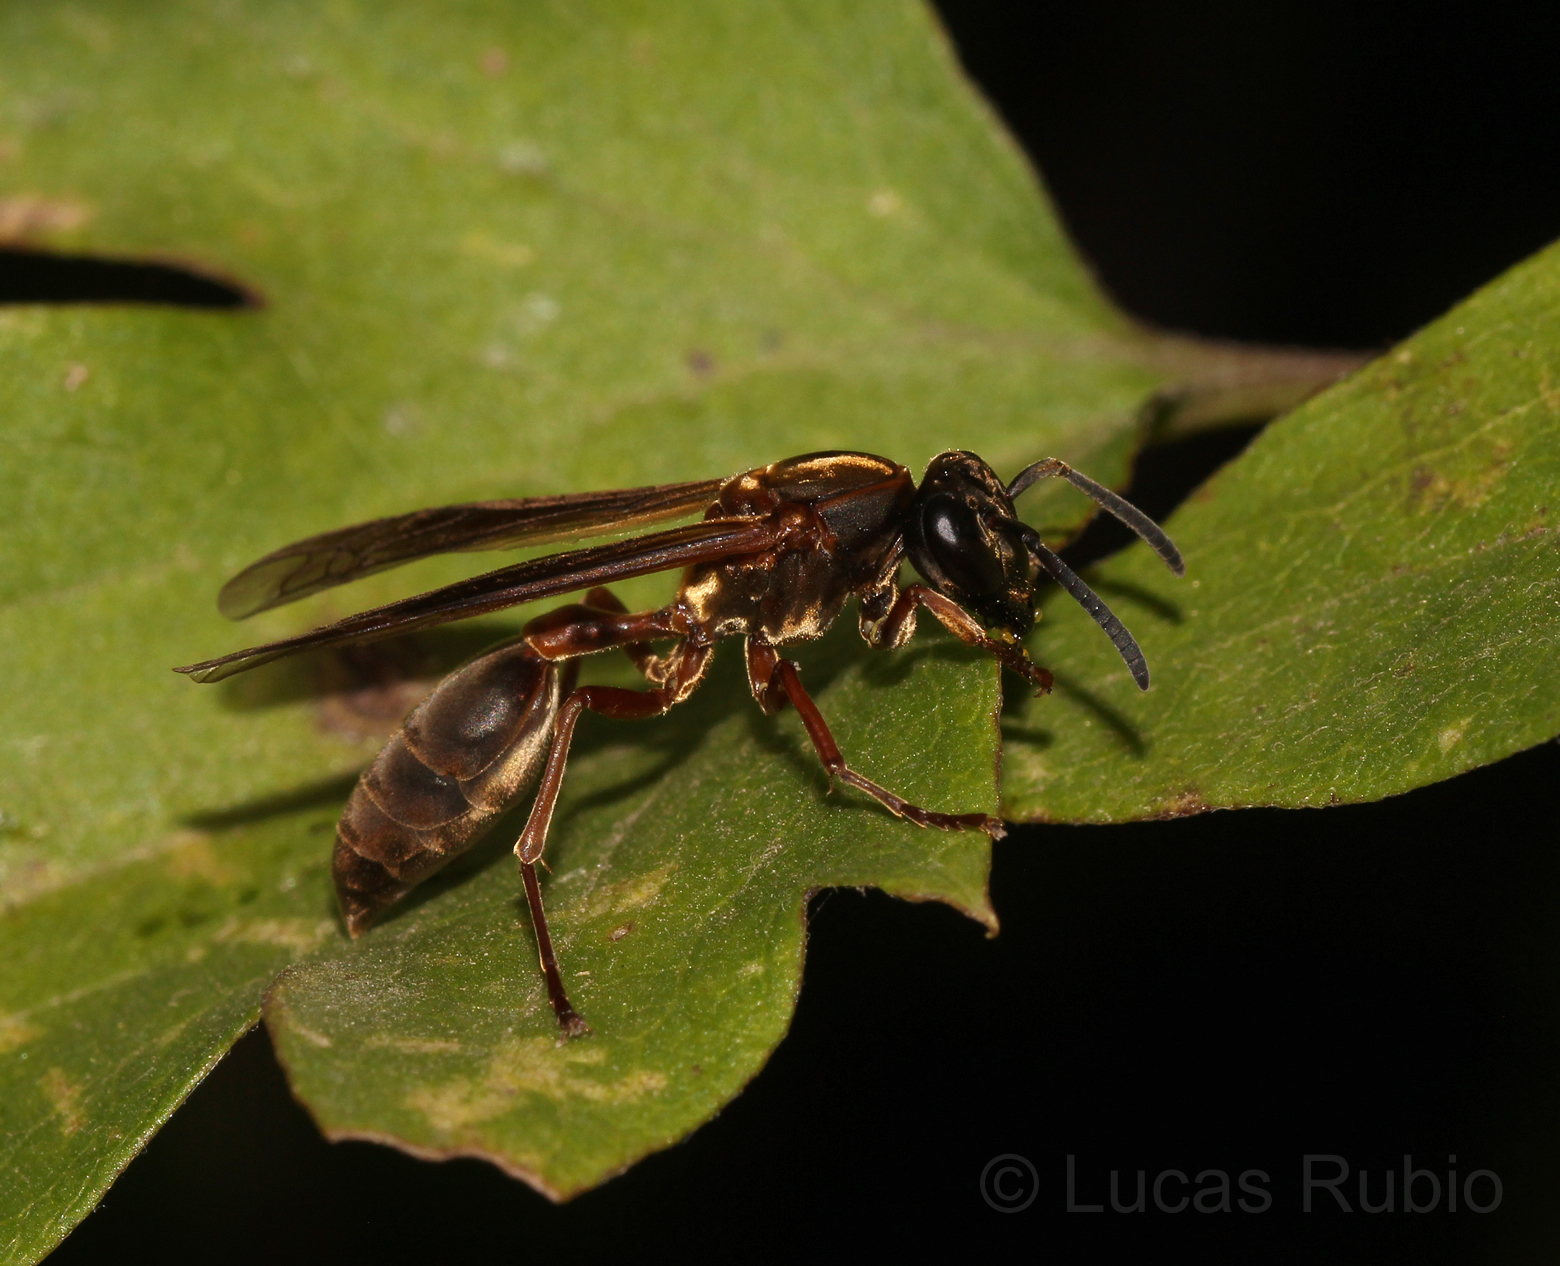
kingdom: Animalia
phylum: Arthropoda
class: Insecta
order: Hymenoptera
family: Eumenidae
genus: Polybia
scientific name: Polybia sericea
